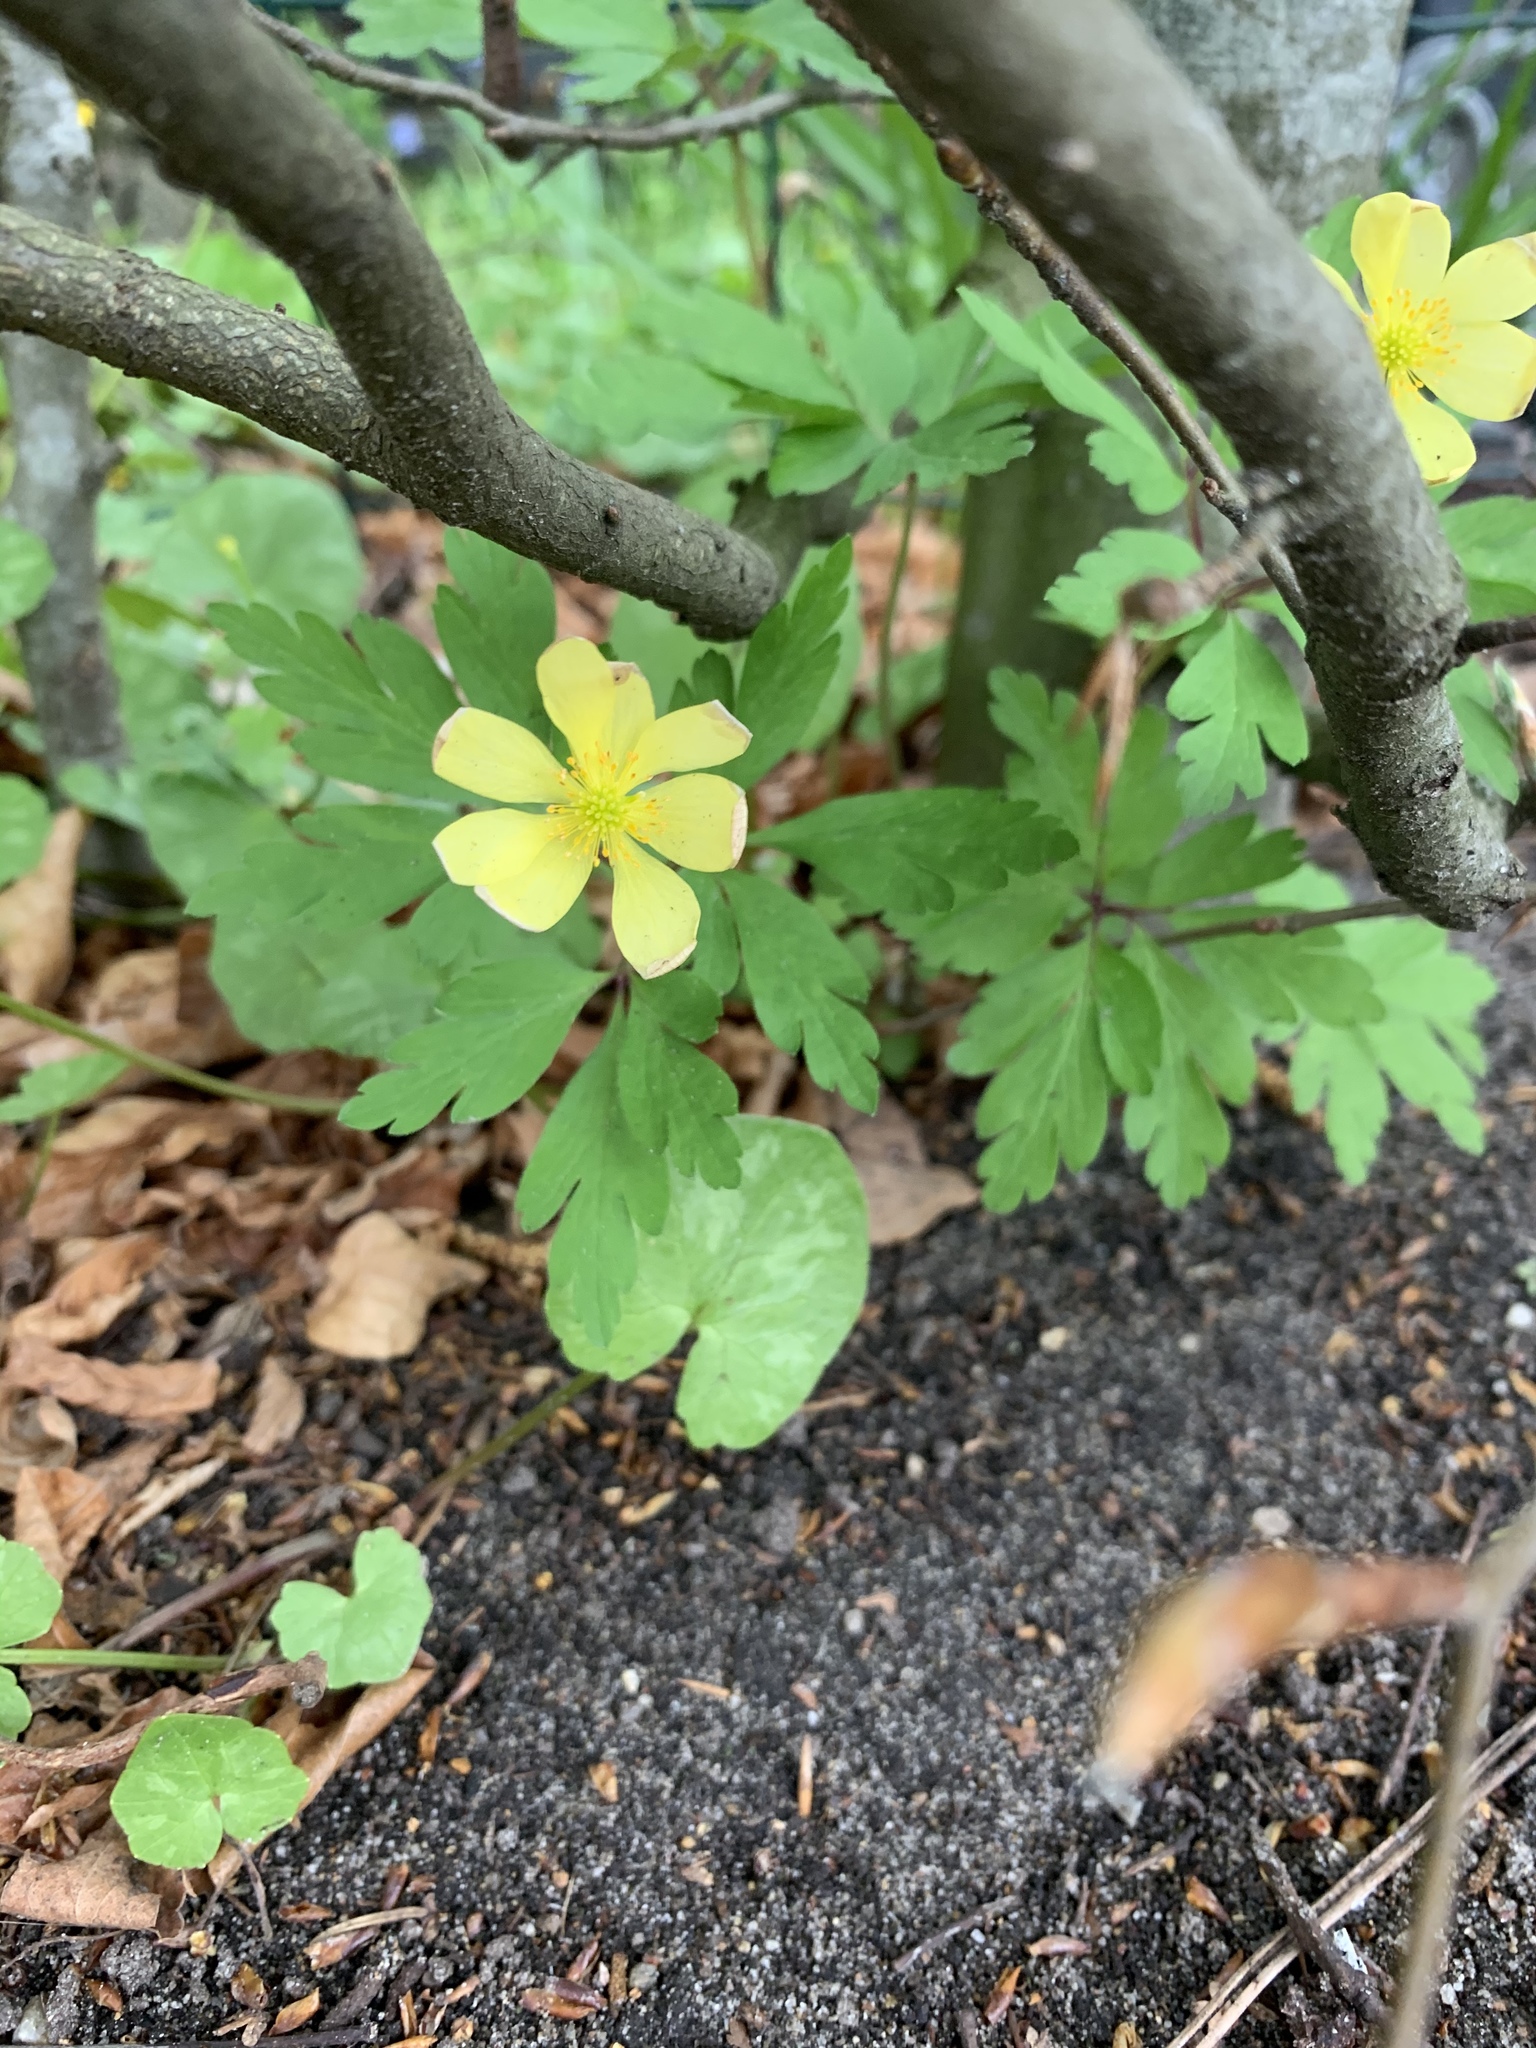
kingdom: Plantae
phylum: Tracheophyta
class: Magnoliopsida
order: Ranunculales
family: Ranunculaceae
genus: Anemone
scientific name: Anemone ranunculoides
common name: Yellow anemone
